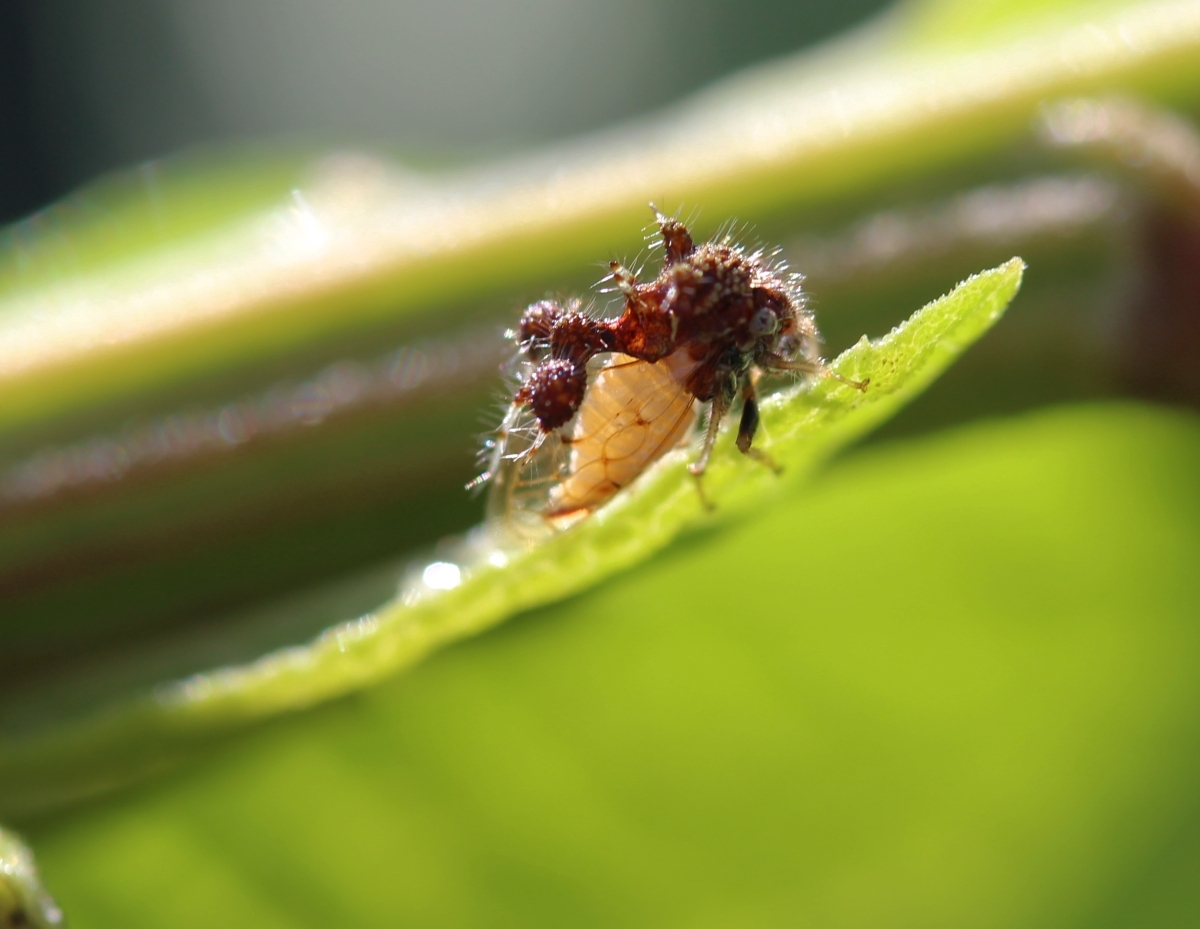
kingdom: Animalia
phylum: Arthropoda
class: Insecta
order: Hemiptera
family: Membracidae
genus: Cyphonia
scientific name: Cyphonia claviger
